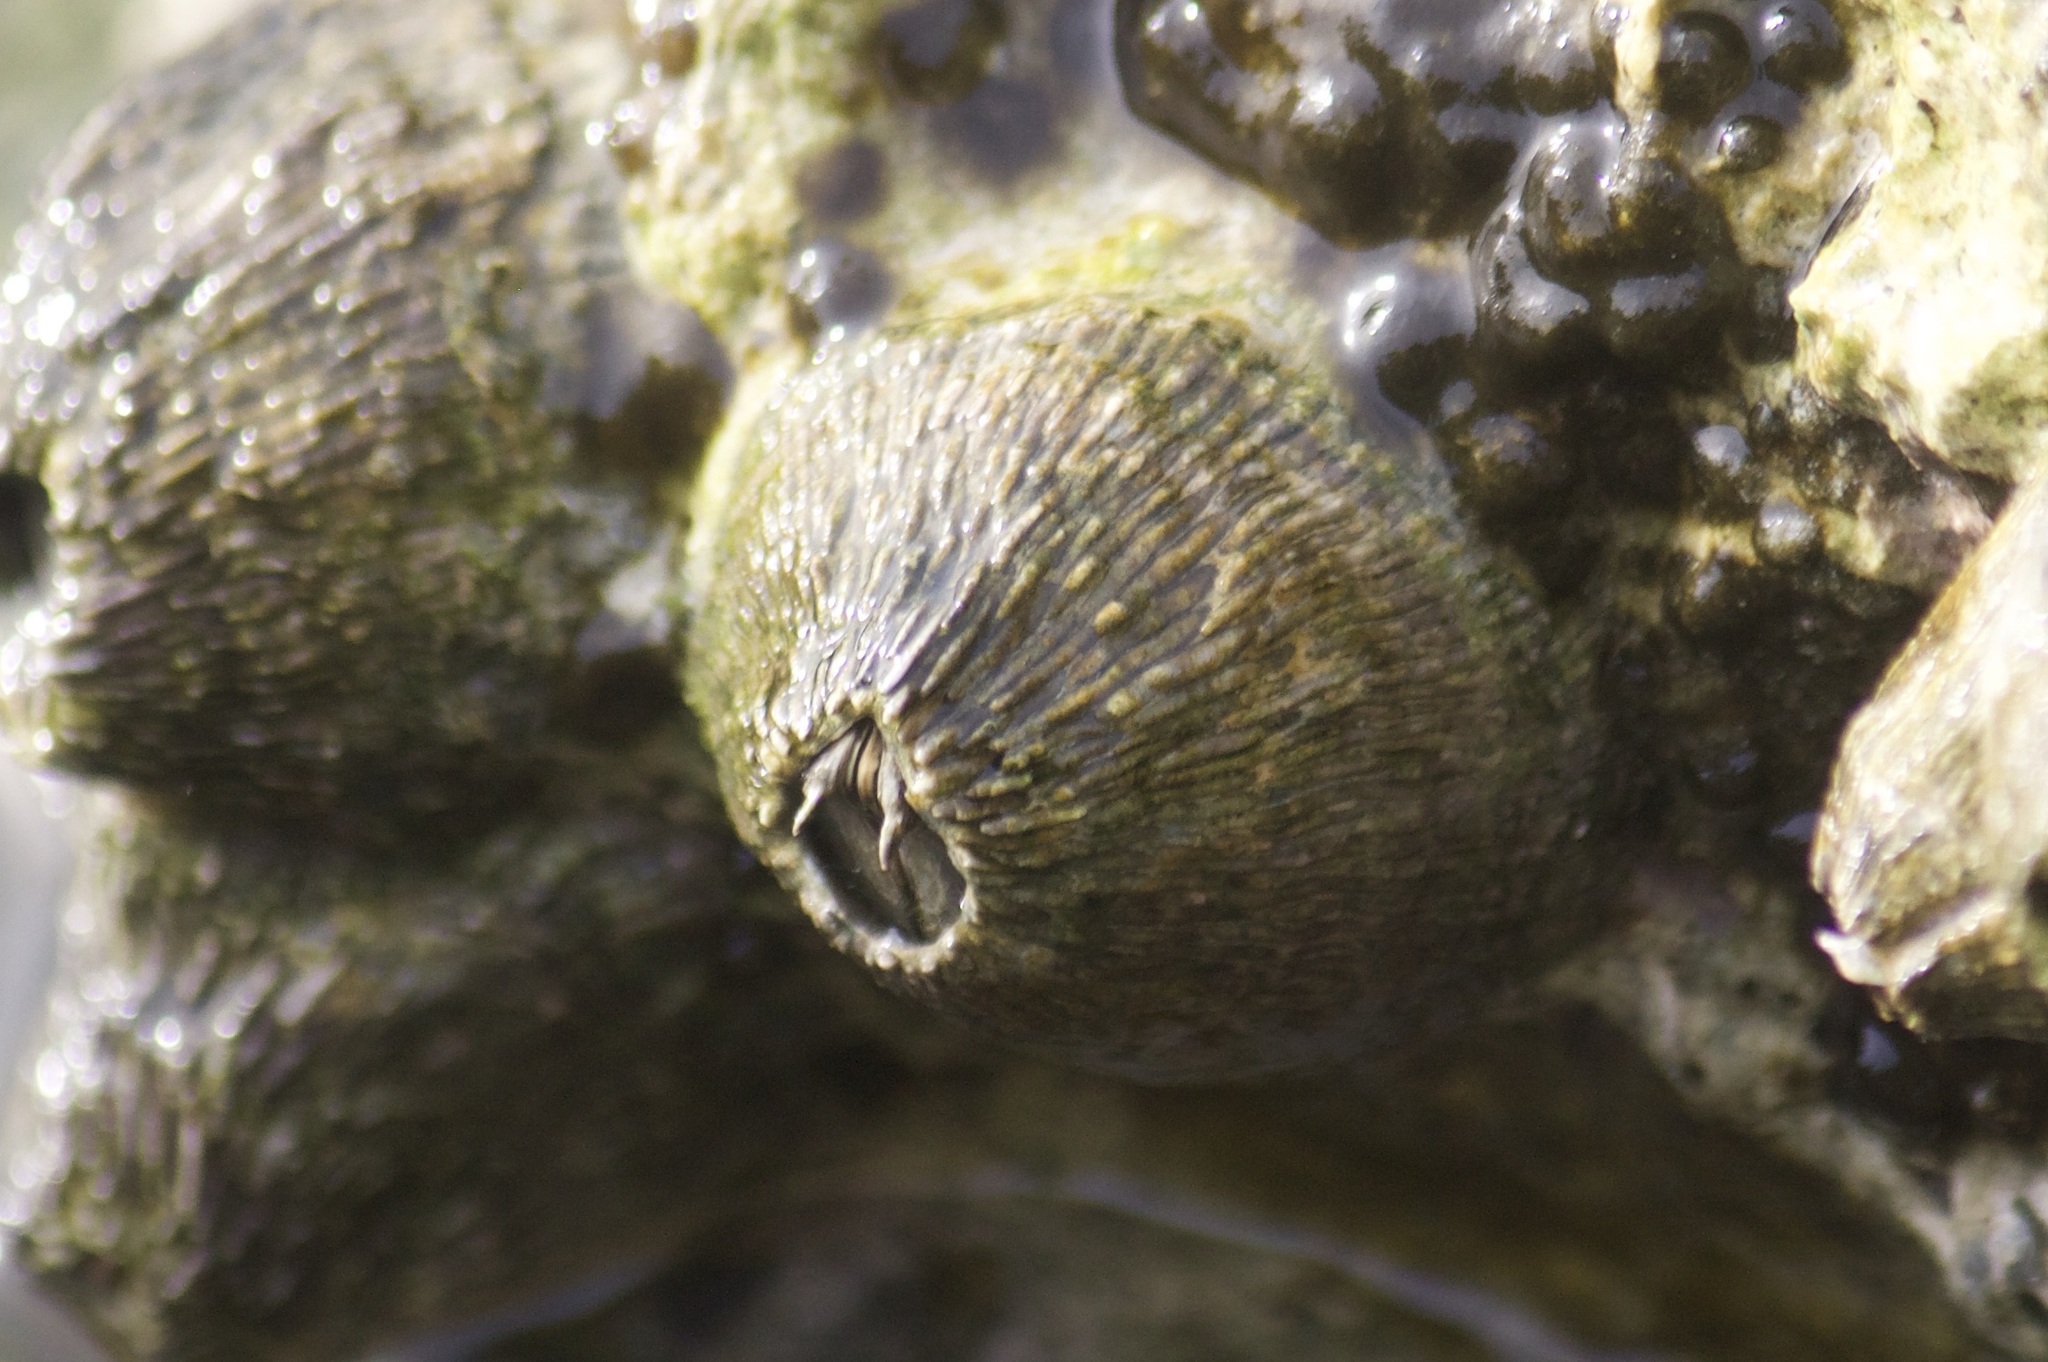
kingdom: Animalia
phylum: Arthropoda
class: Maxillopoda
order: Sessilia
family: Tetraclitidae
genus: Tetraclita
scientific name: Tetraclita stalactifera
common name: Ribbed barnacle
